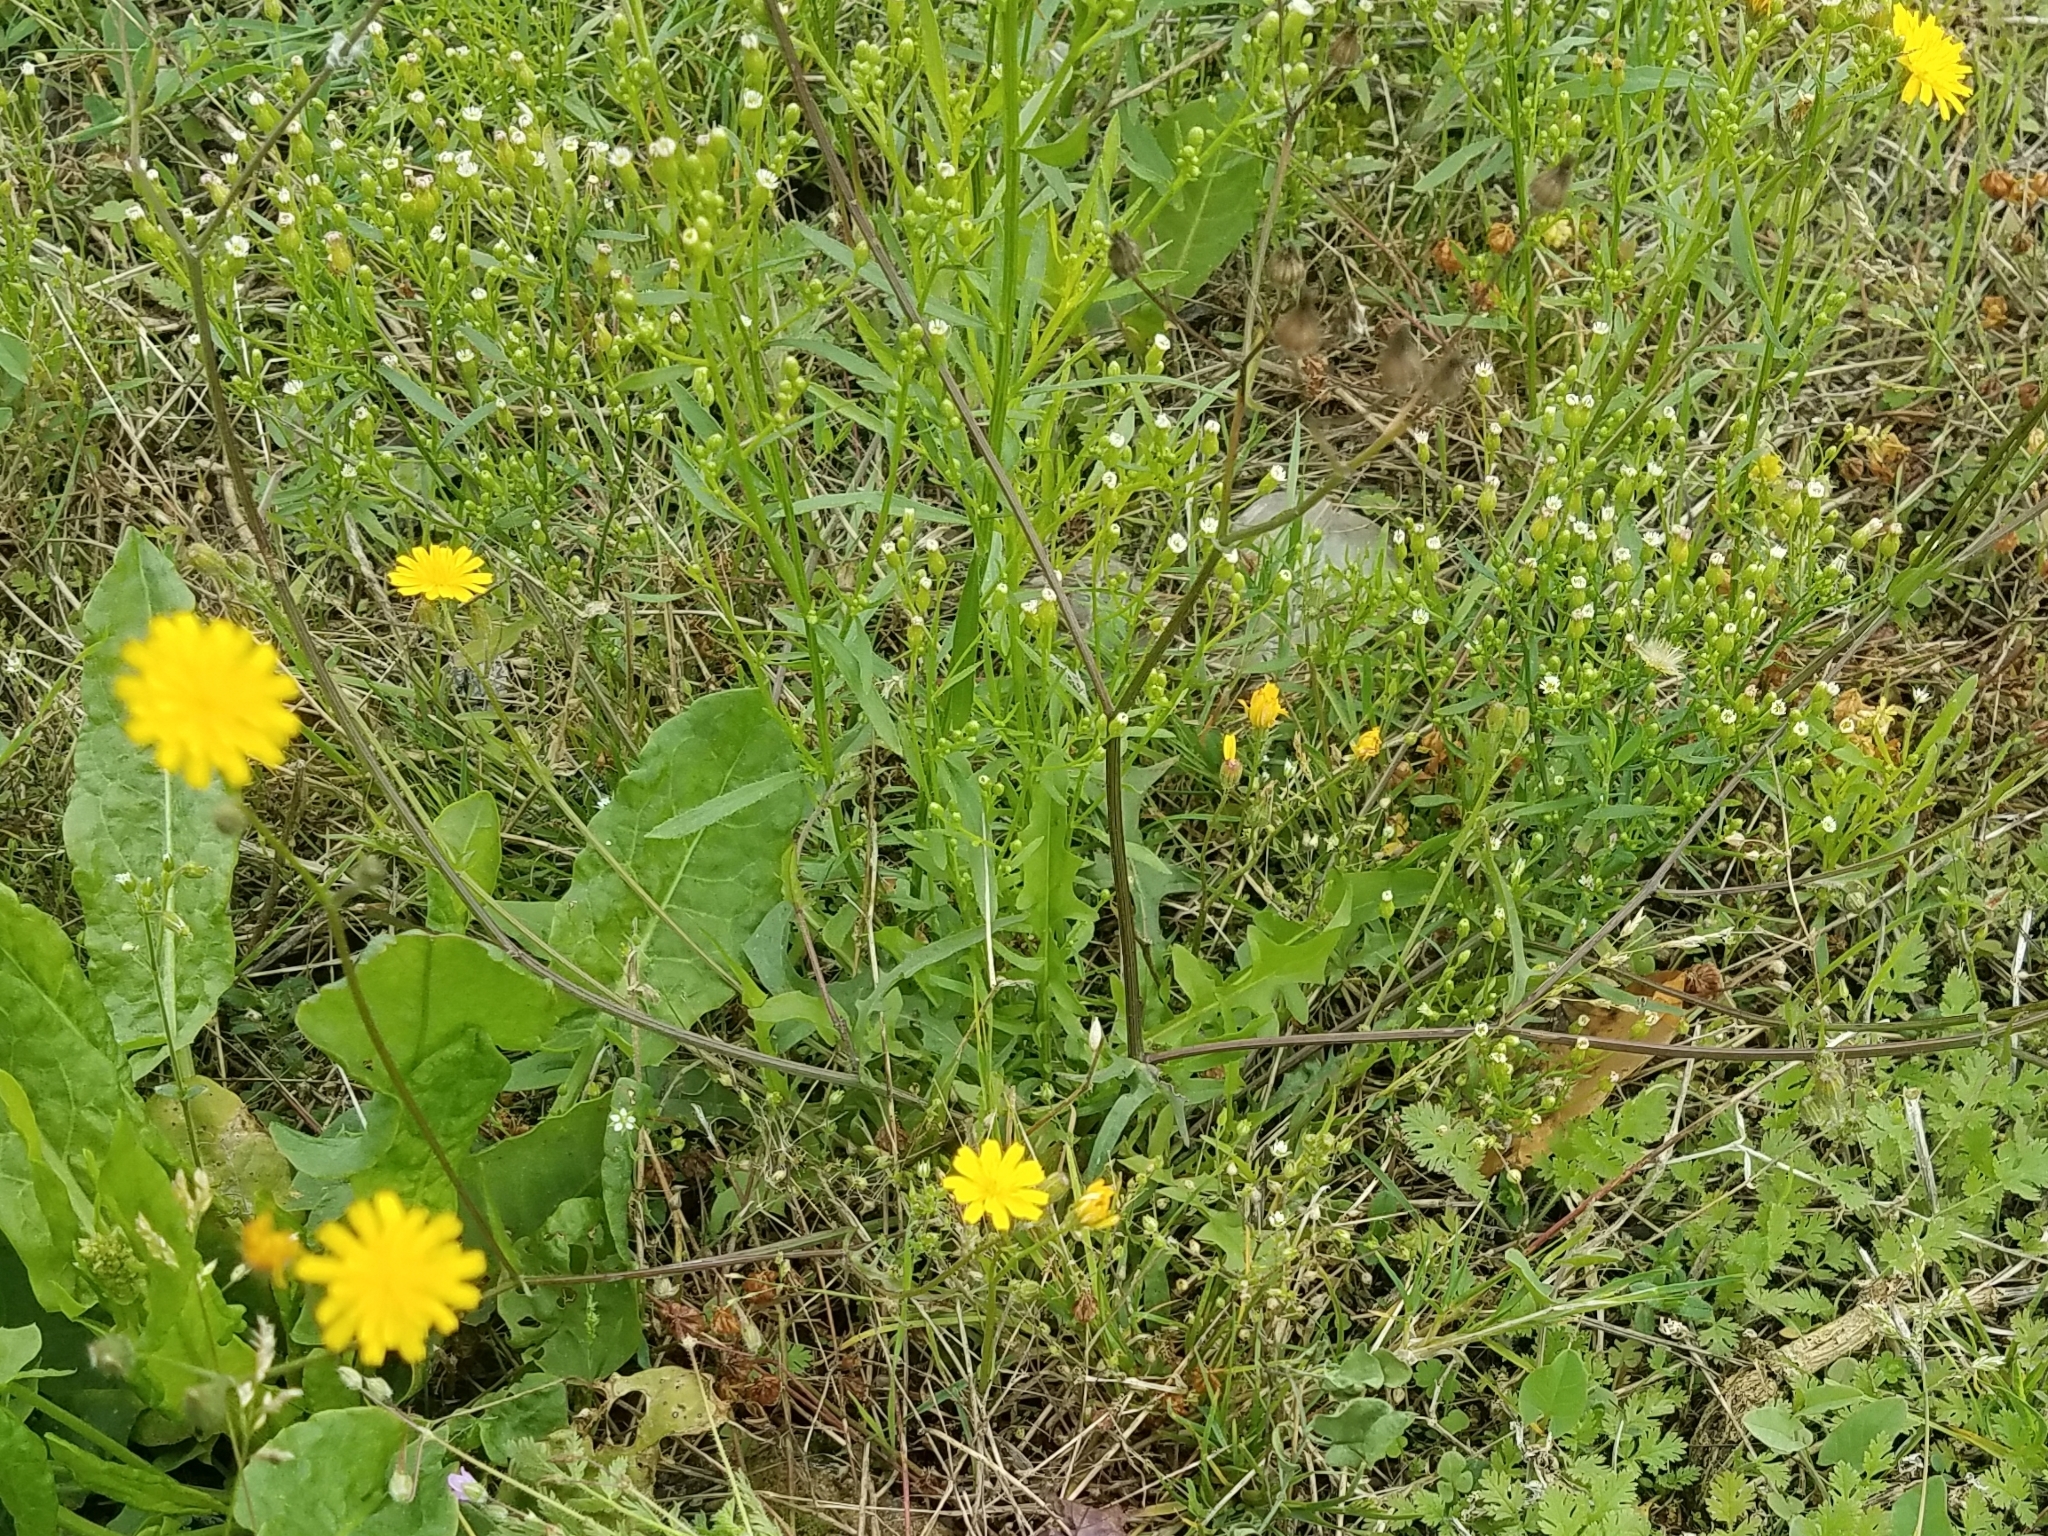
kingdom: Plantae
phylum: Tracheophyta
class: Magnoliopsida
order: Asterales
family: Asteraceae
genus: Crepis
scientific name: Crepis capillaris
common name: Smooth hawksbeard
